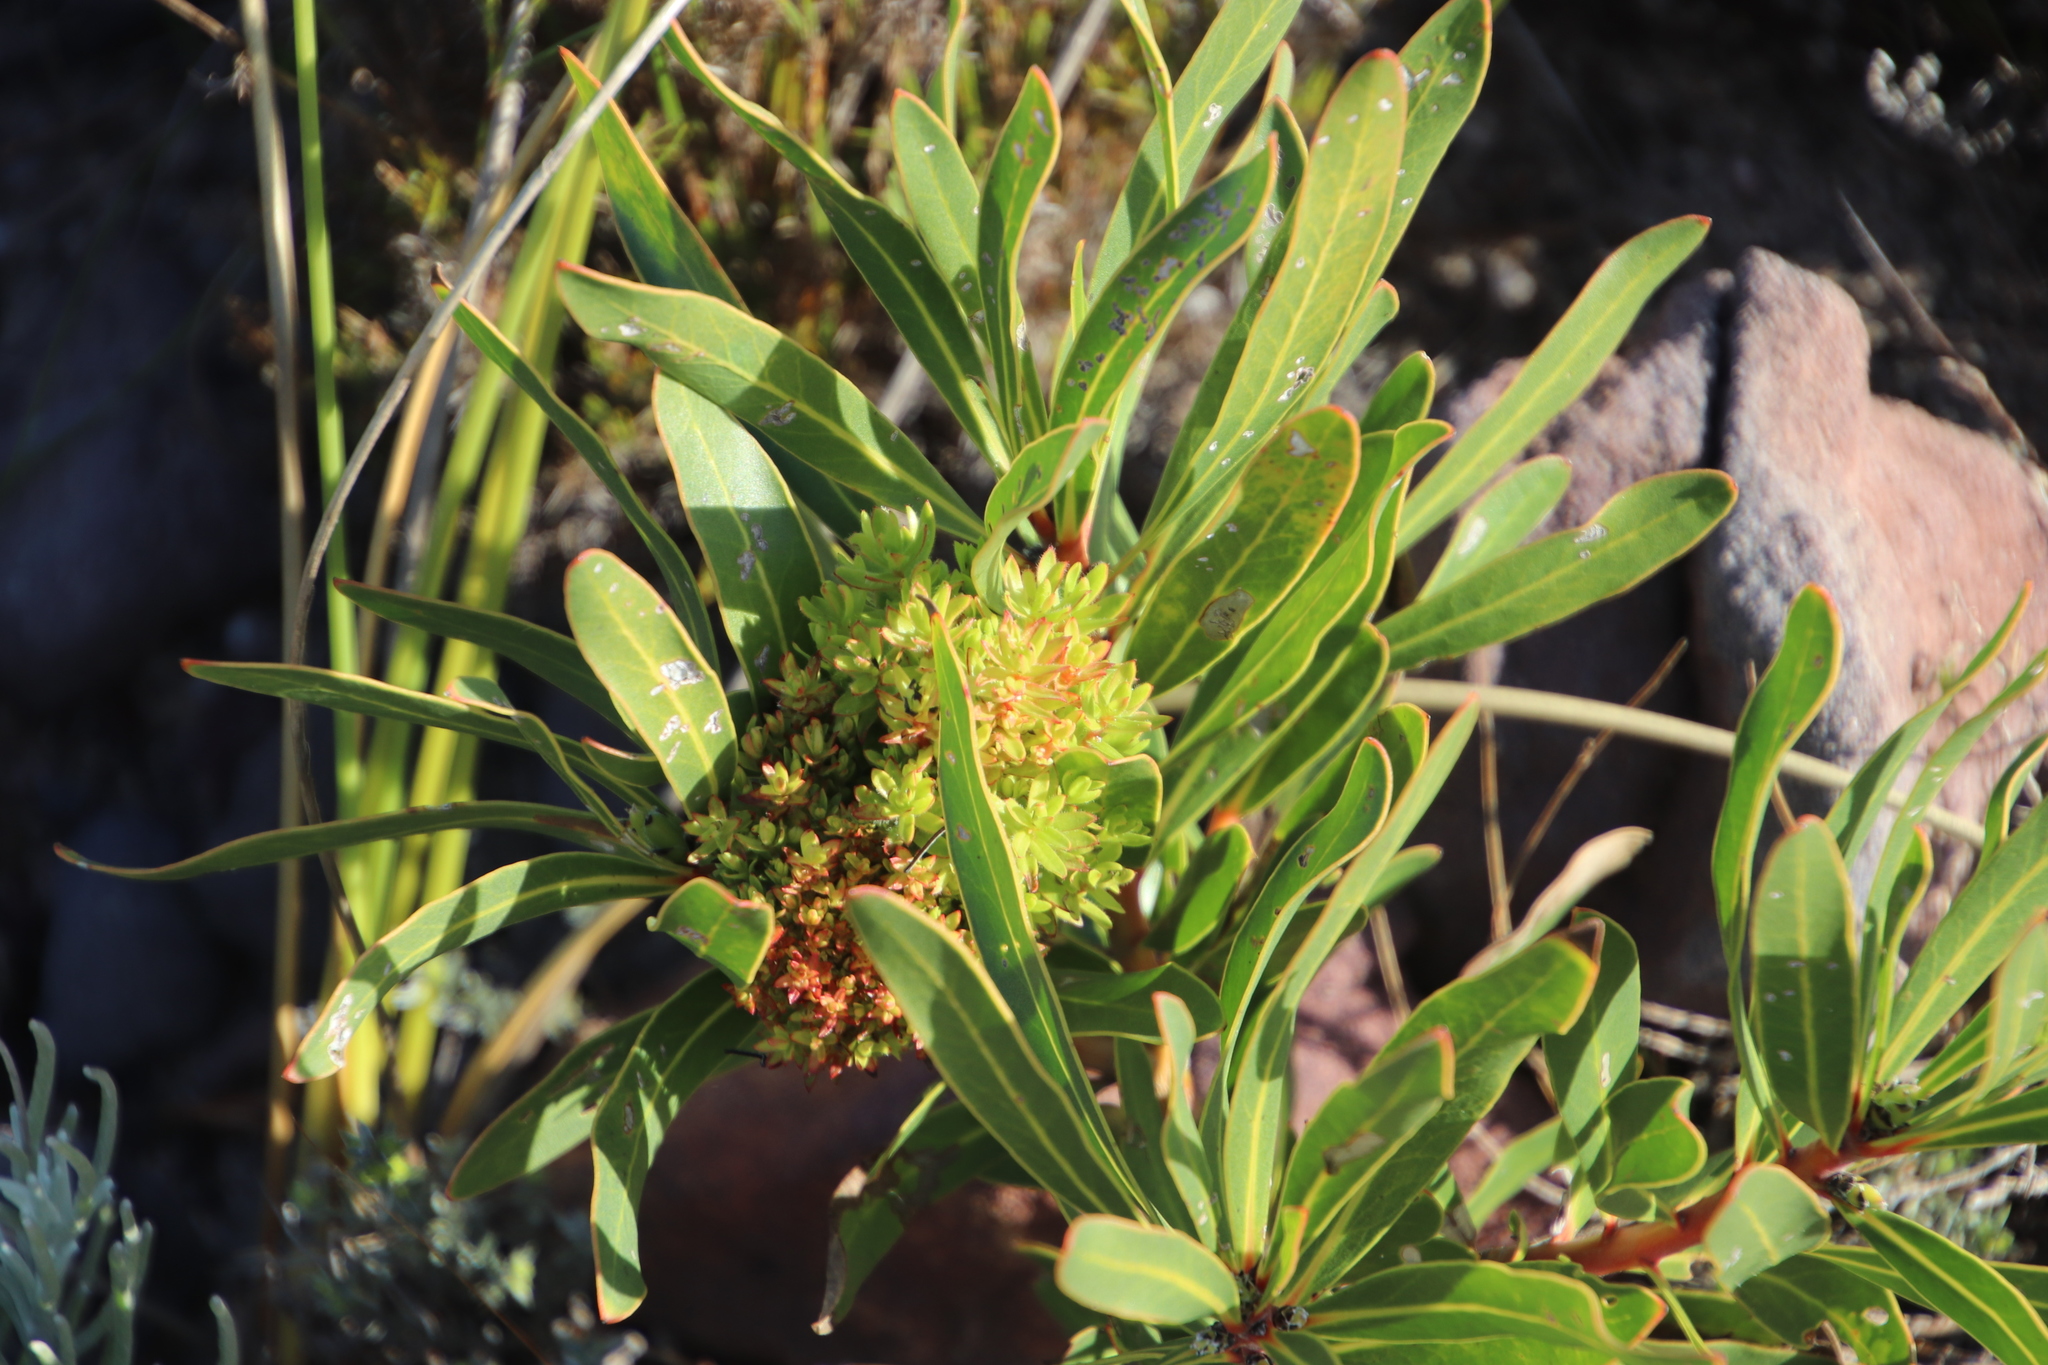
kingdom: Bacteria
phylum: Firmicutes
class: Bacilli
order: Acholeplasmatales
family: Acholeplasmataceae
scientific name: Acholeplasmataceae
